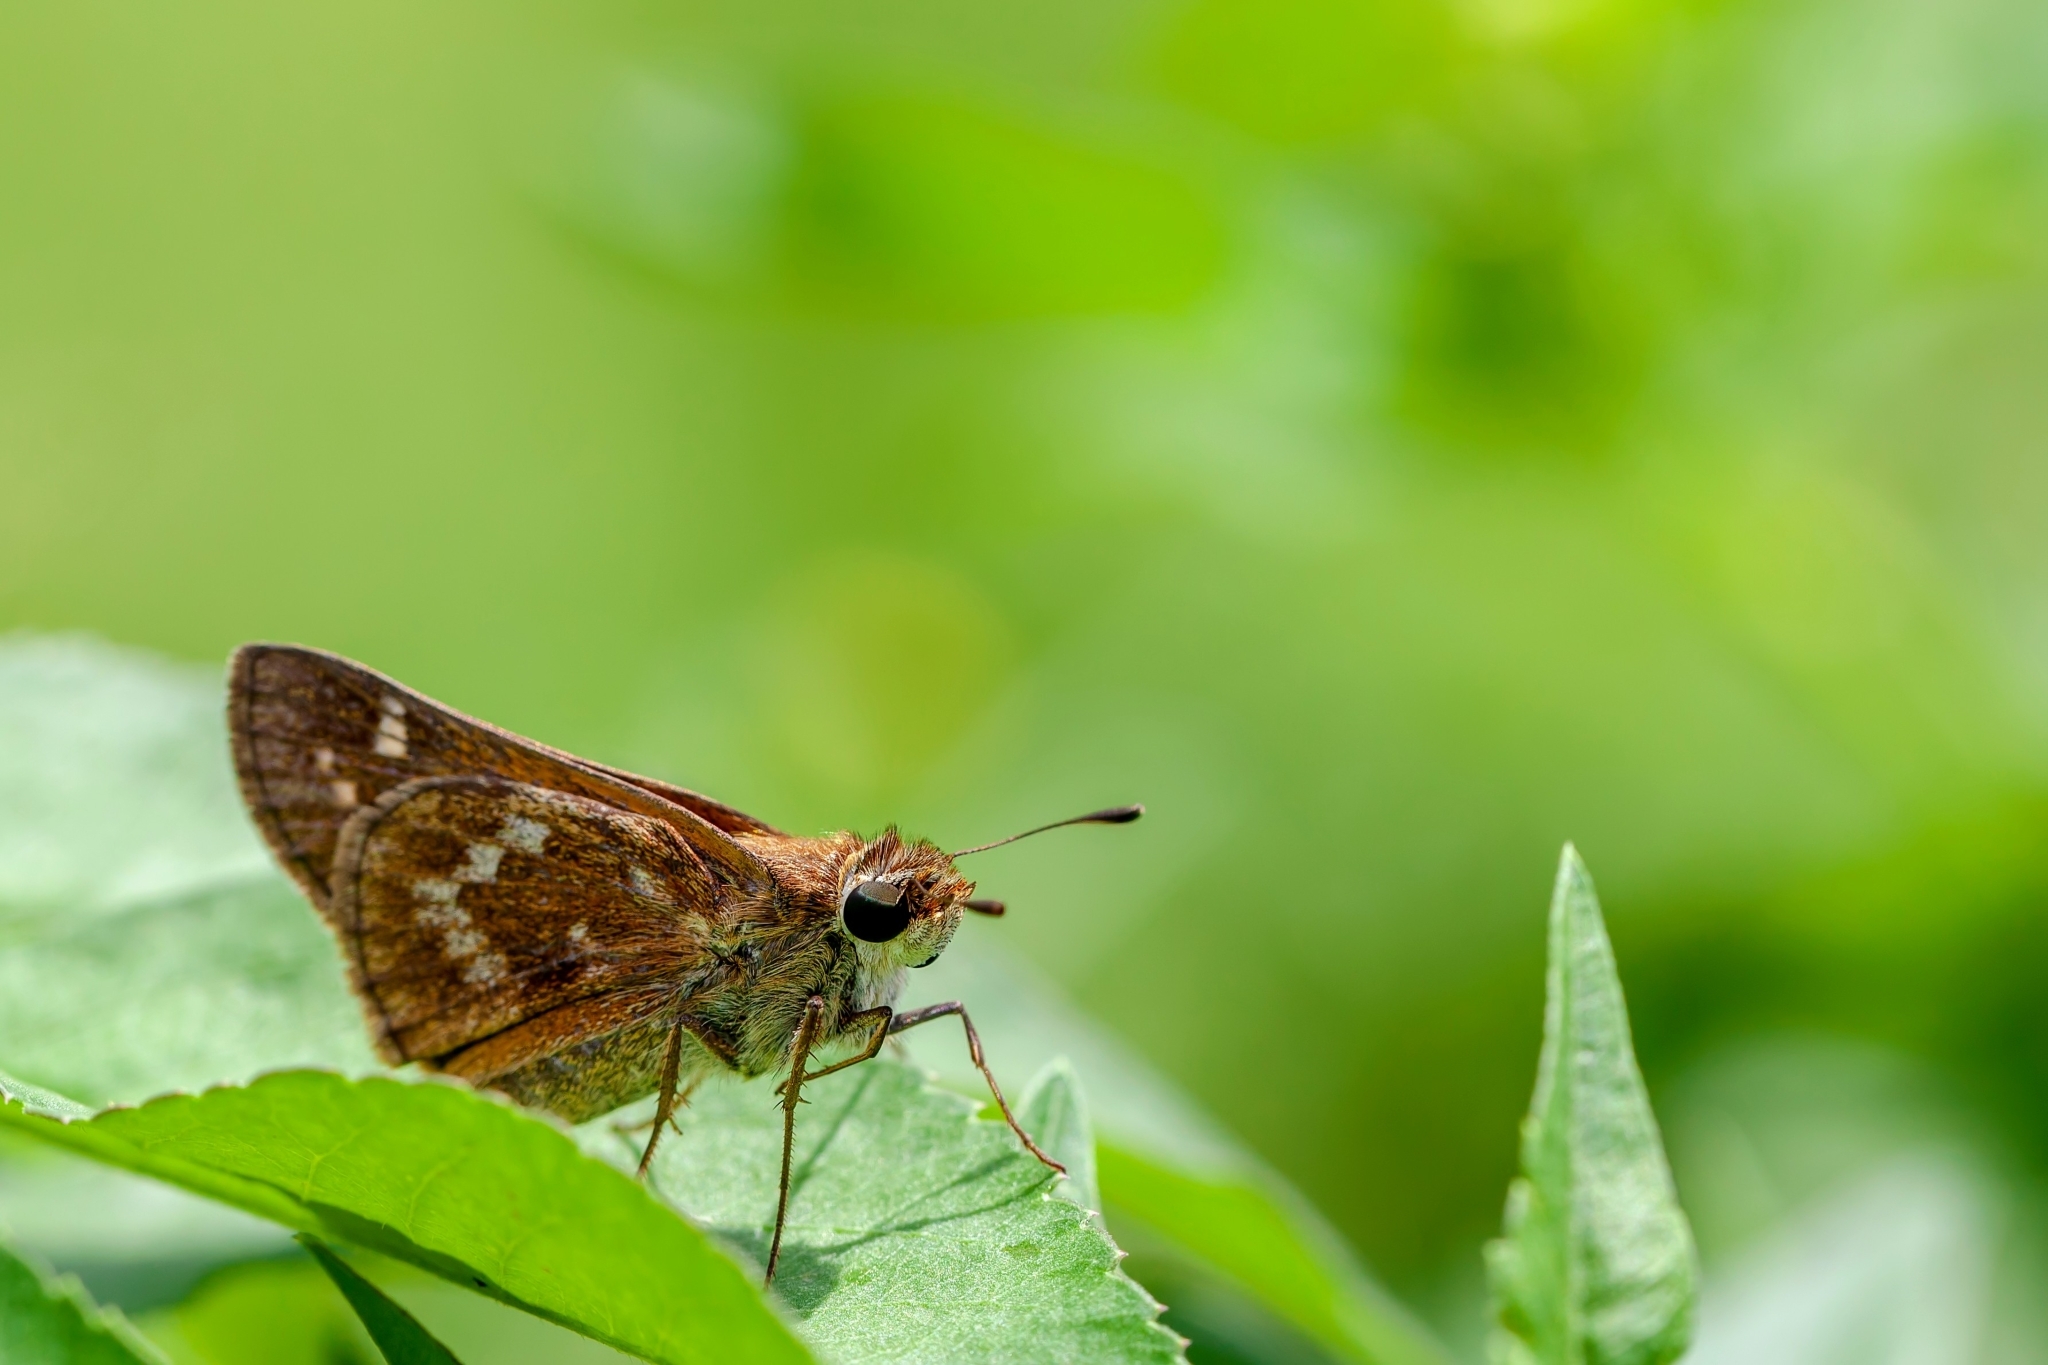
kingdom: Animalia
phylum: Arthropoda
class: Insecta
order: Lepidoptera
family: Hesperiidae
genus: Atalopedes
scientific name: Atalopedes
